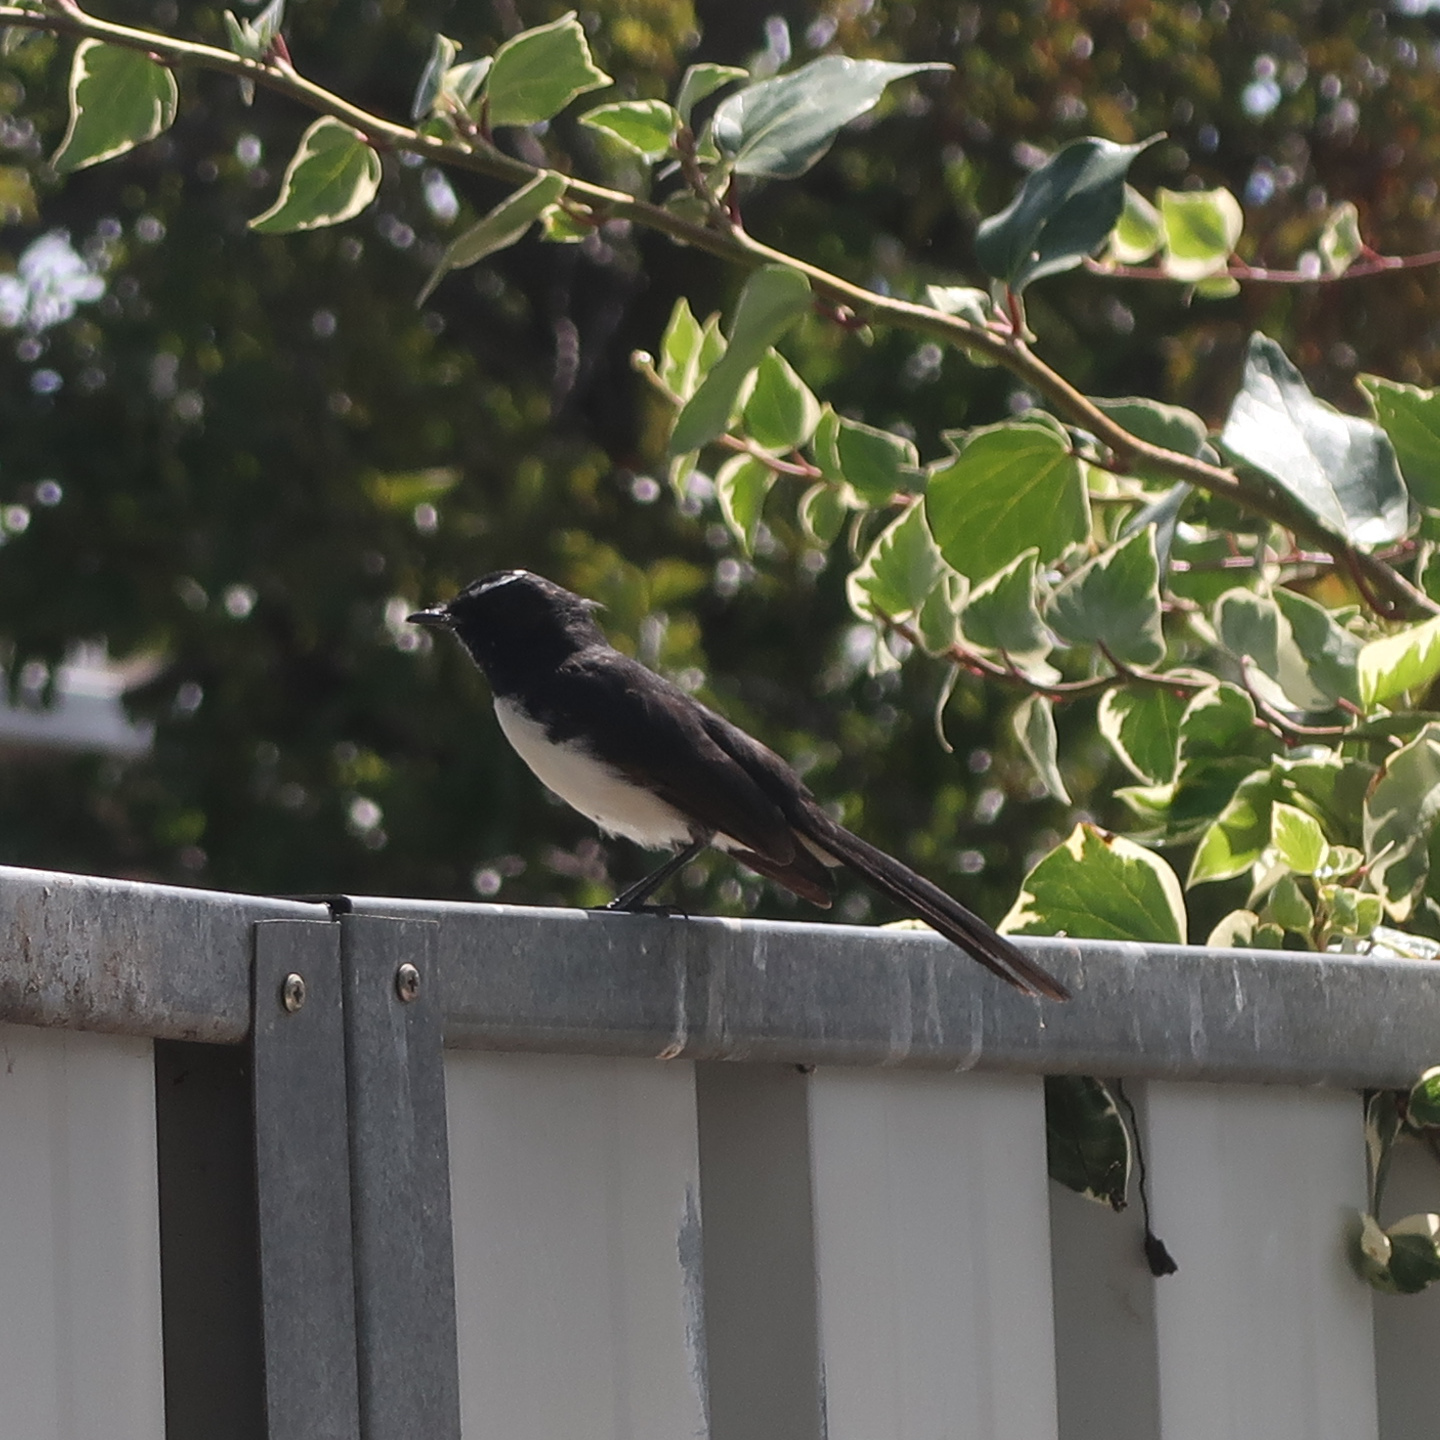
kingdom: Animalia
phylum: Chordata
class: Aves
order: Passeriformes
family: Rhipiduridae
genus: Rhipidura
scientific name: Rhipidura leucophrys
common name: Willie wagtail
